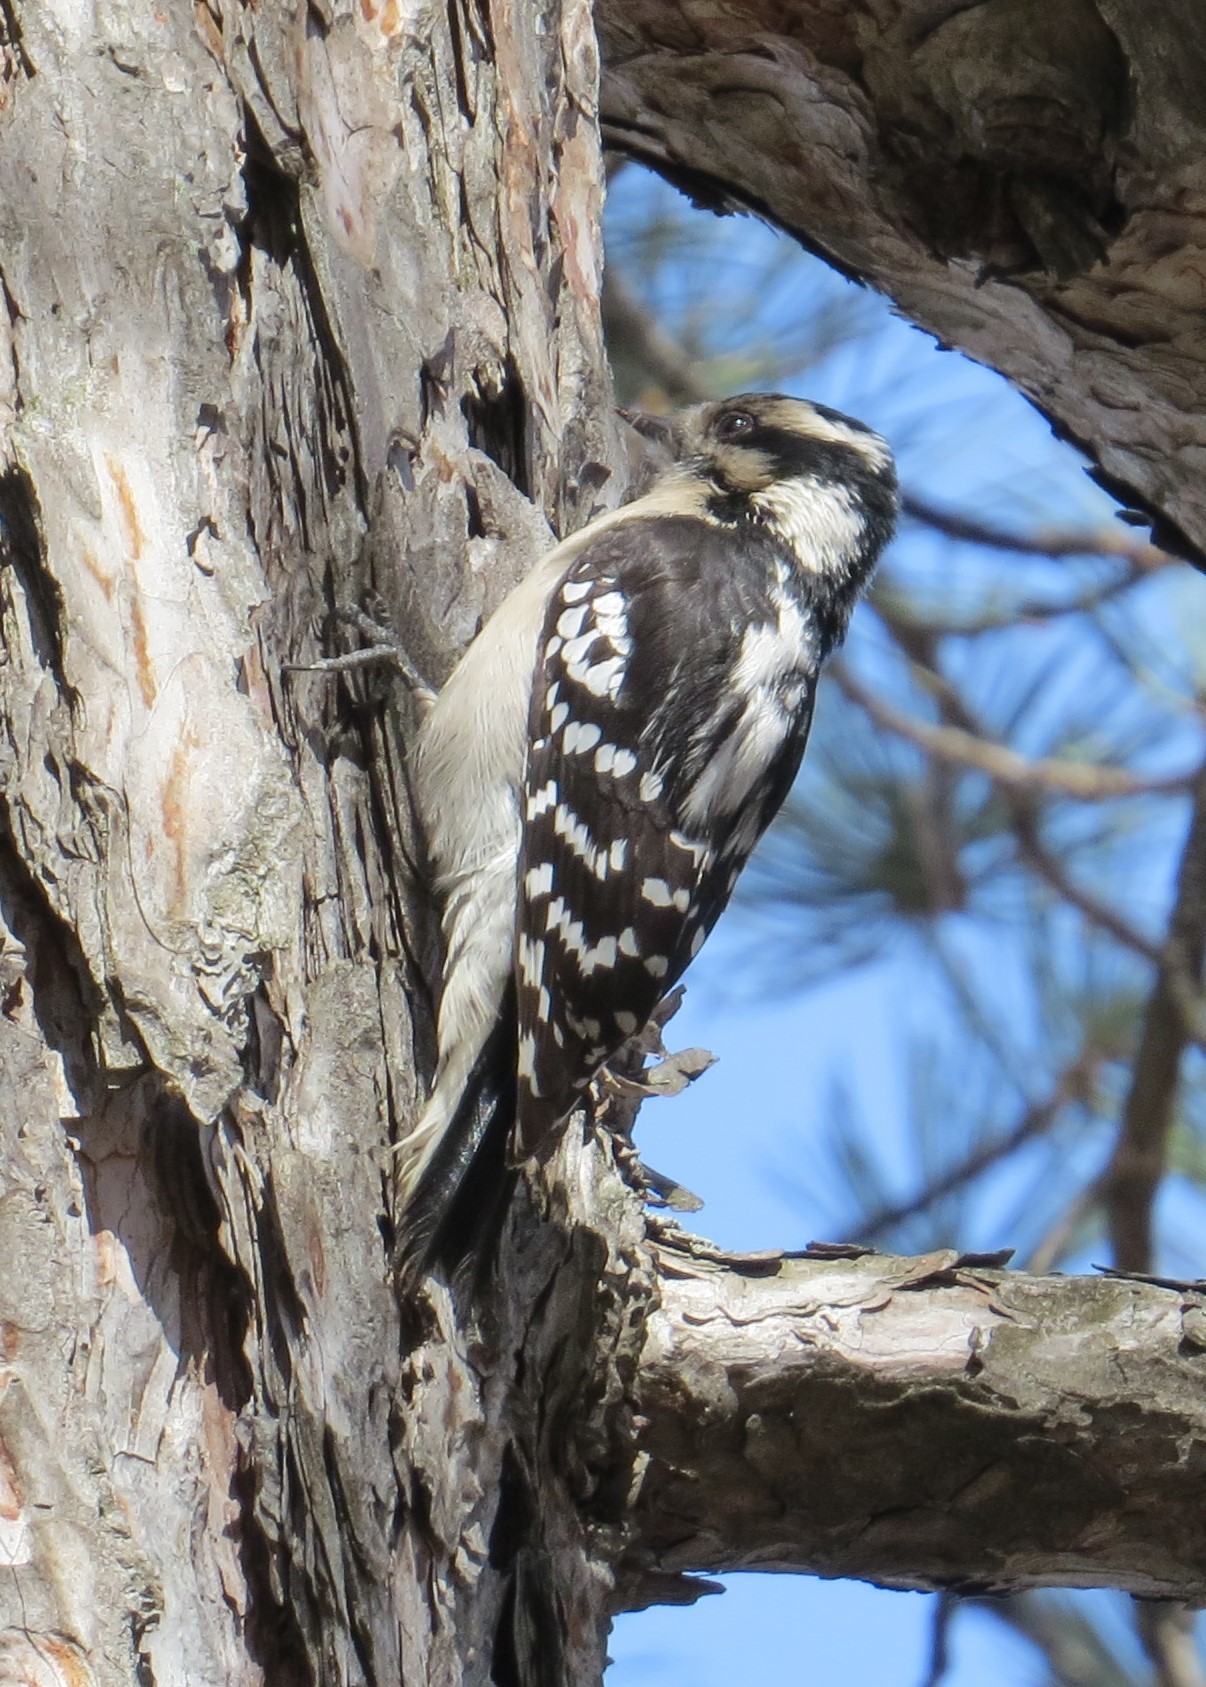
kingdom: Animalia
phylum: Chordata
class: Aves
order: Piciformes
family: Picidae
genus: Dryobates
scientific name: Dryobates pubescens
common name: Downy woodpecker
